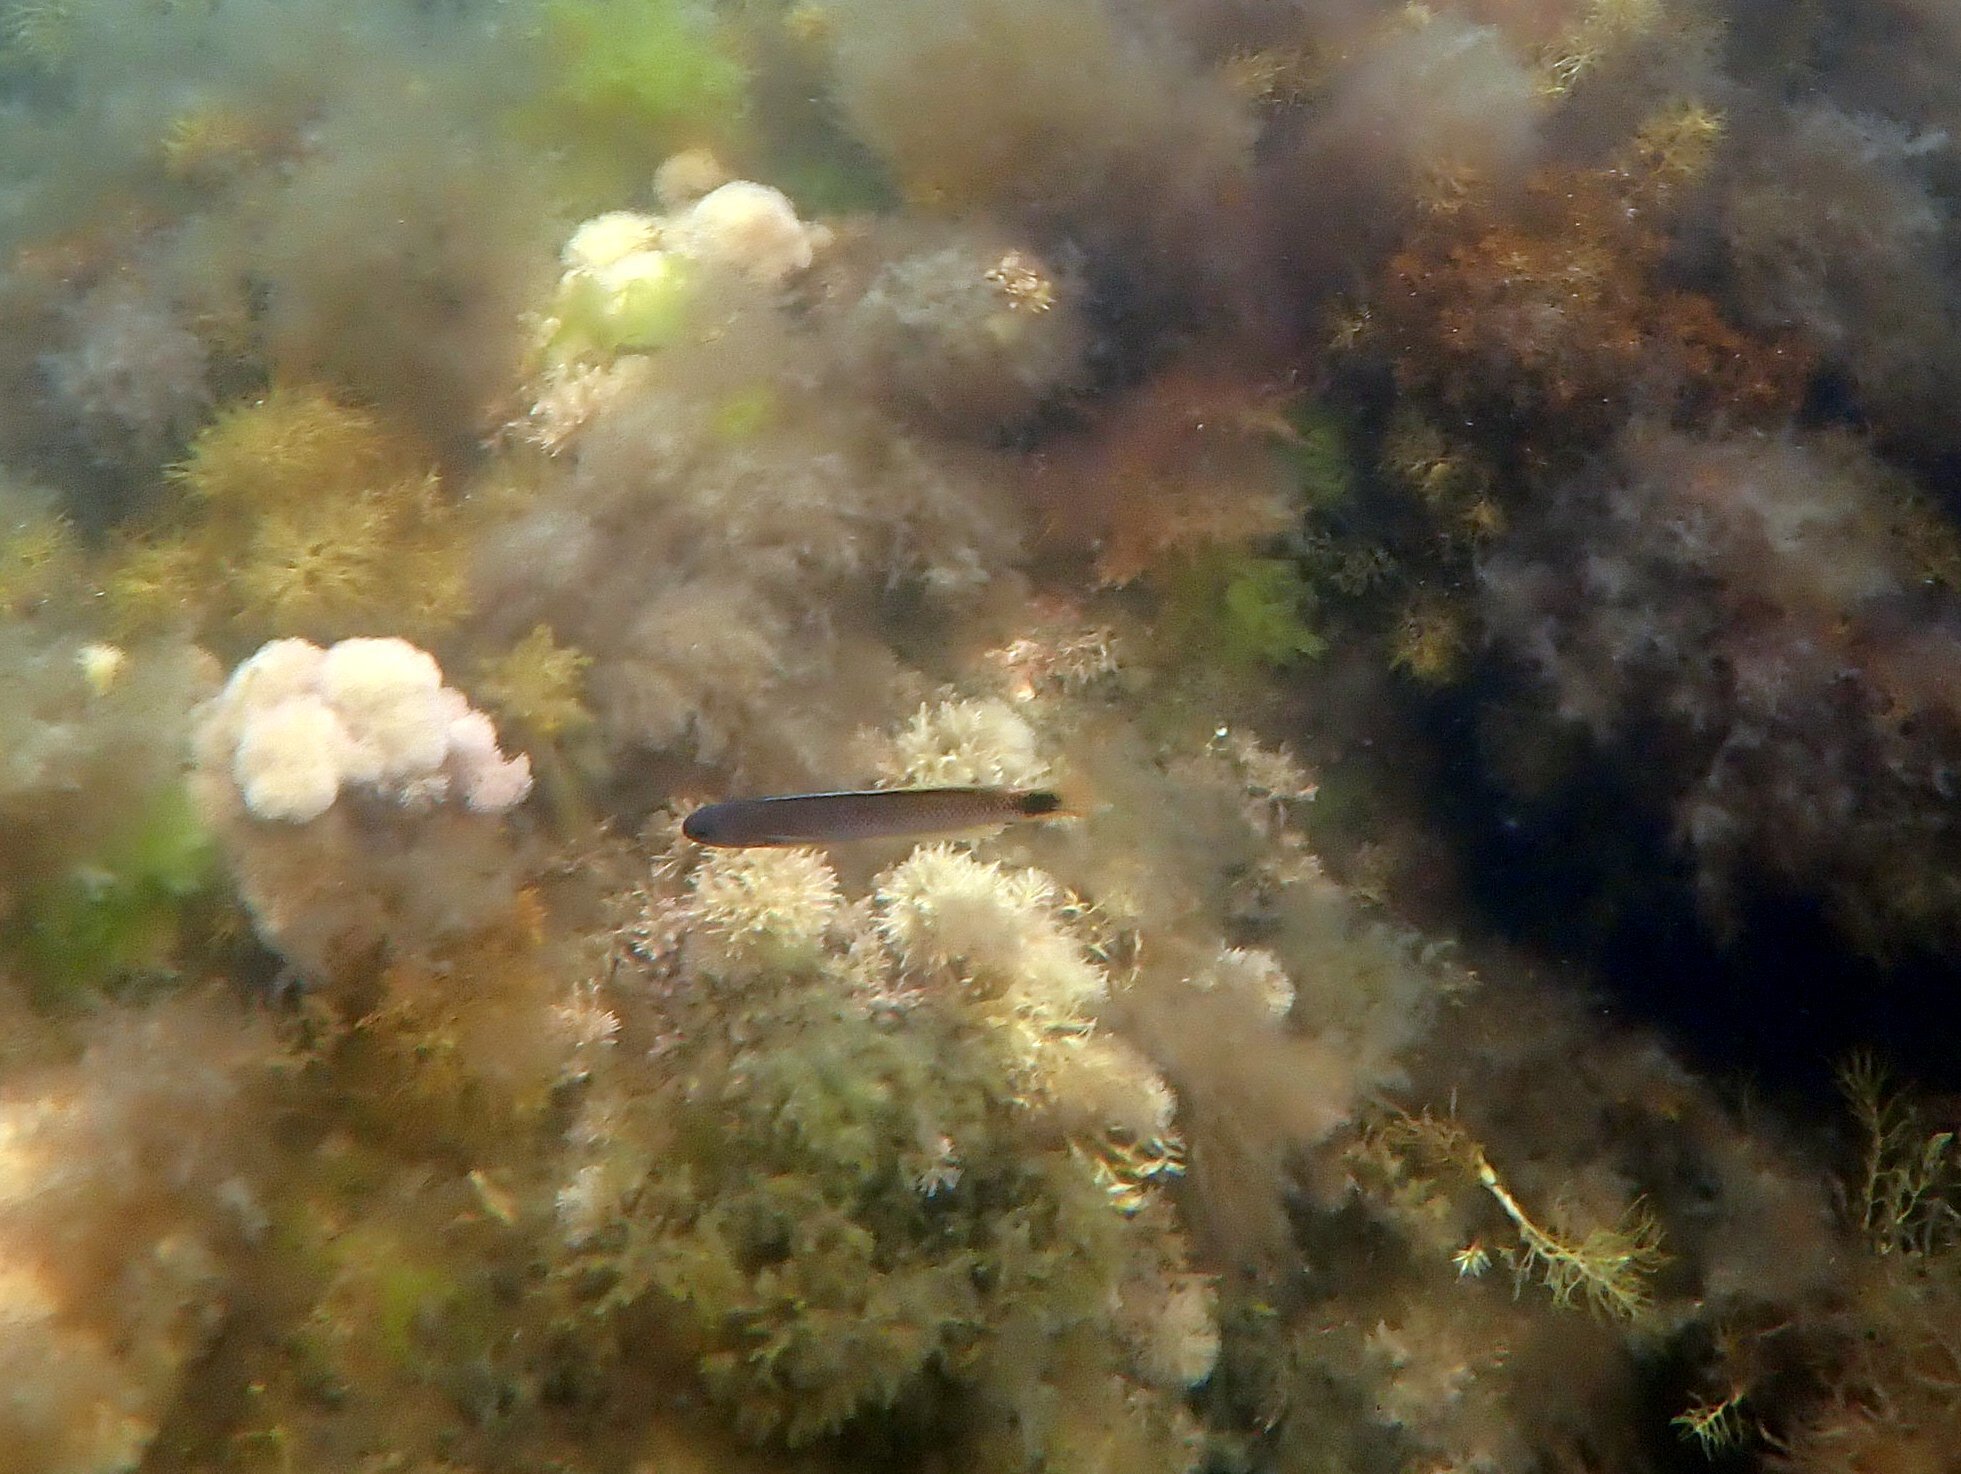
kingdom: Animalia
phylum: Chordata
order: Perciformes
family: Plesiopidae
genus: Trachinops
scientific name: Trachinops caudimaculatus
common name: Blotched-tailed trachinops
